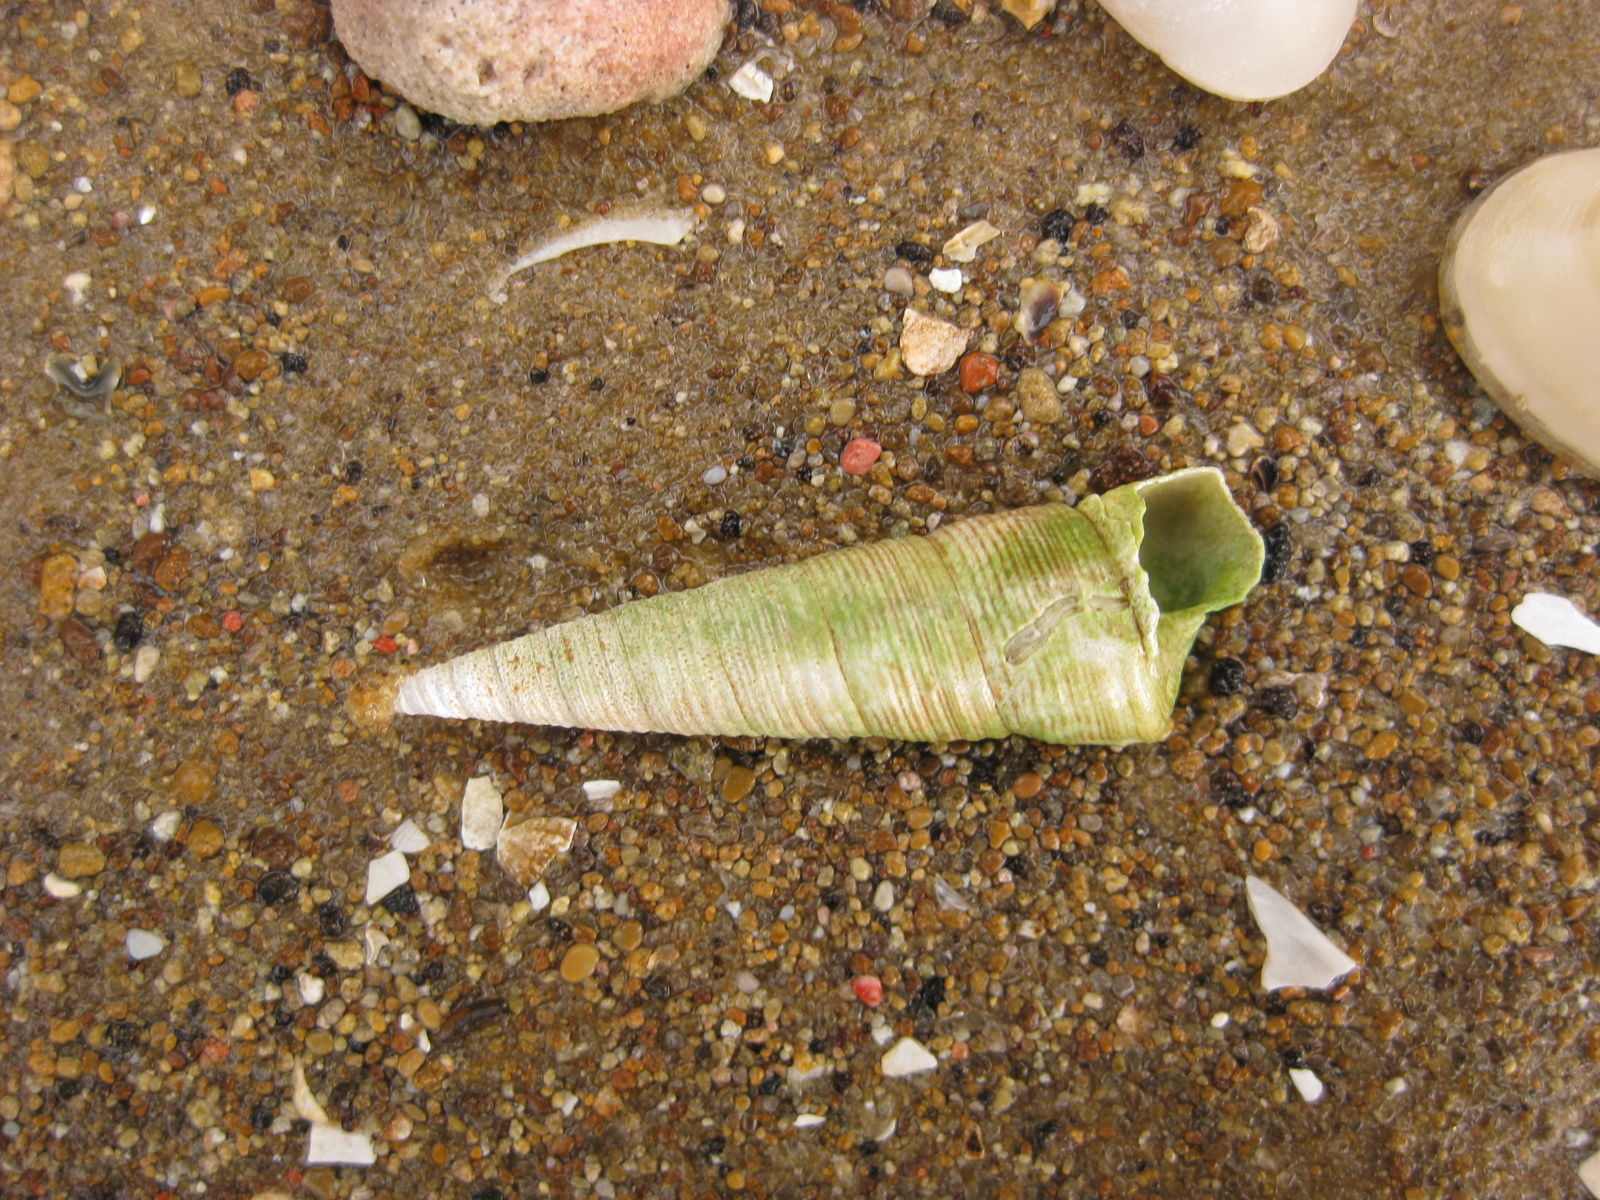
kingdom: Animalia
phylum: Mollusca
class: Gastropoda
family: Turritellidae
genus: Maoricolpus
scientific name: Maoricolpus roseus
